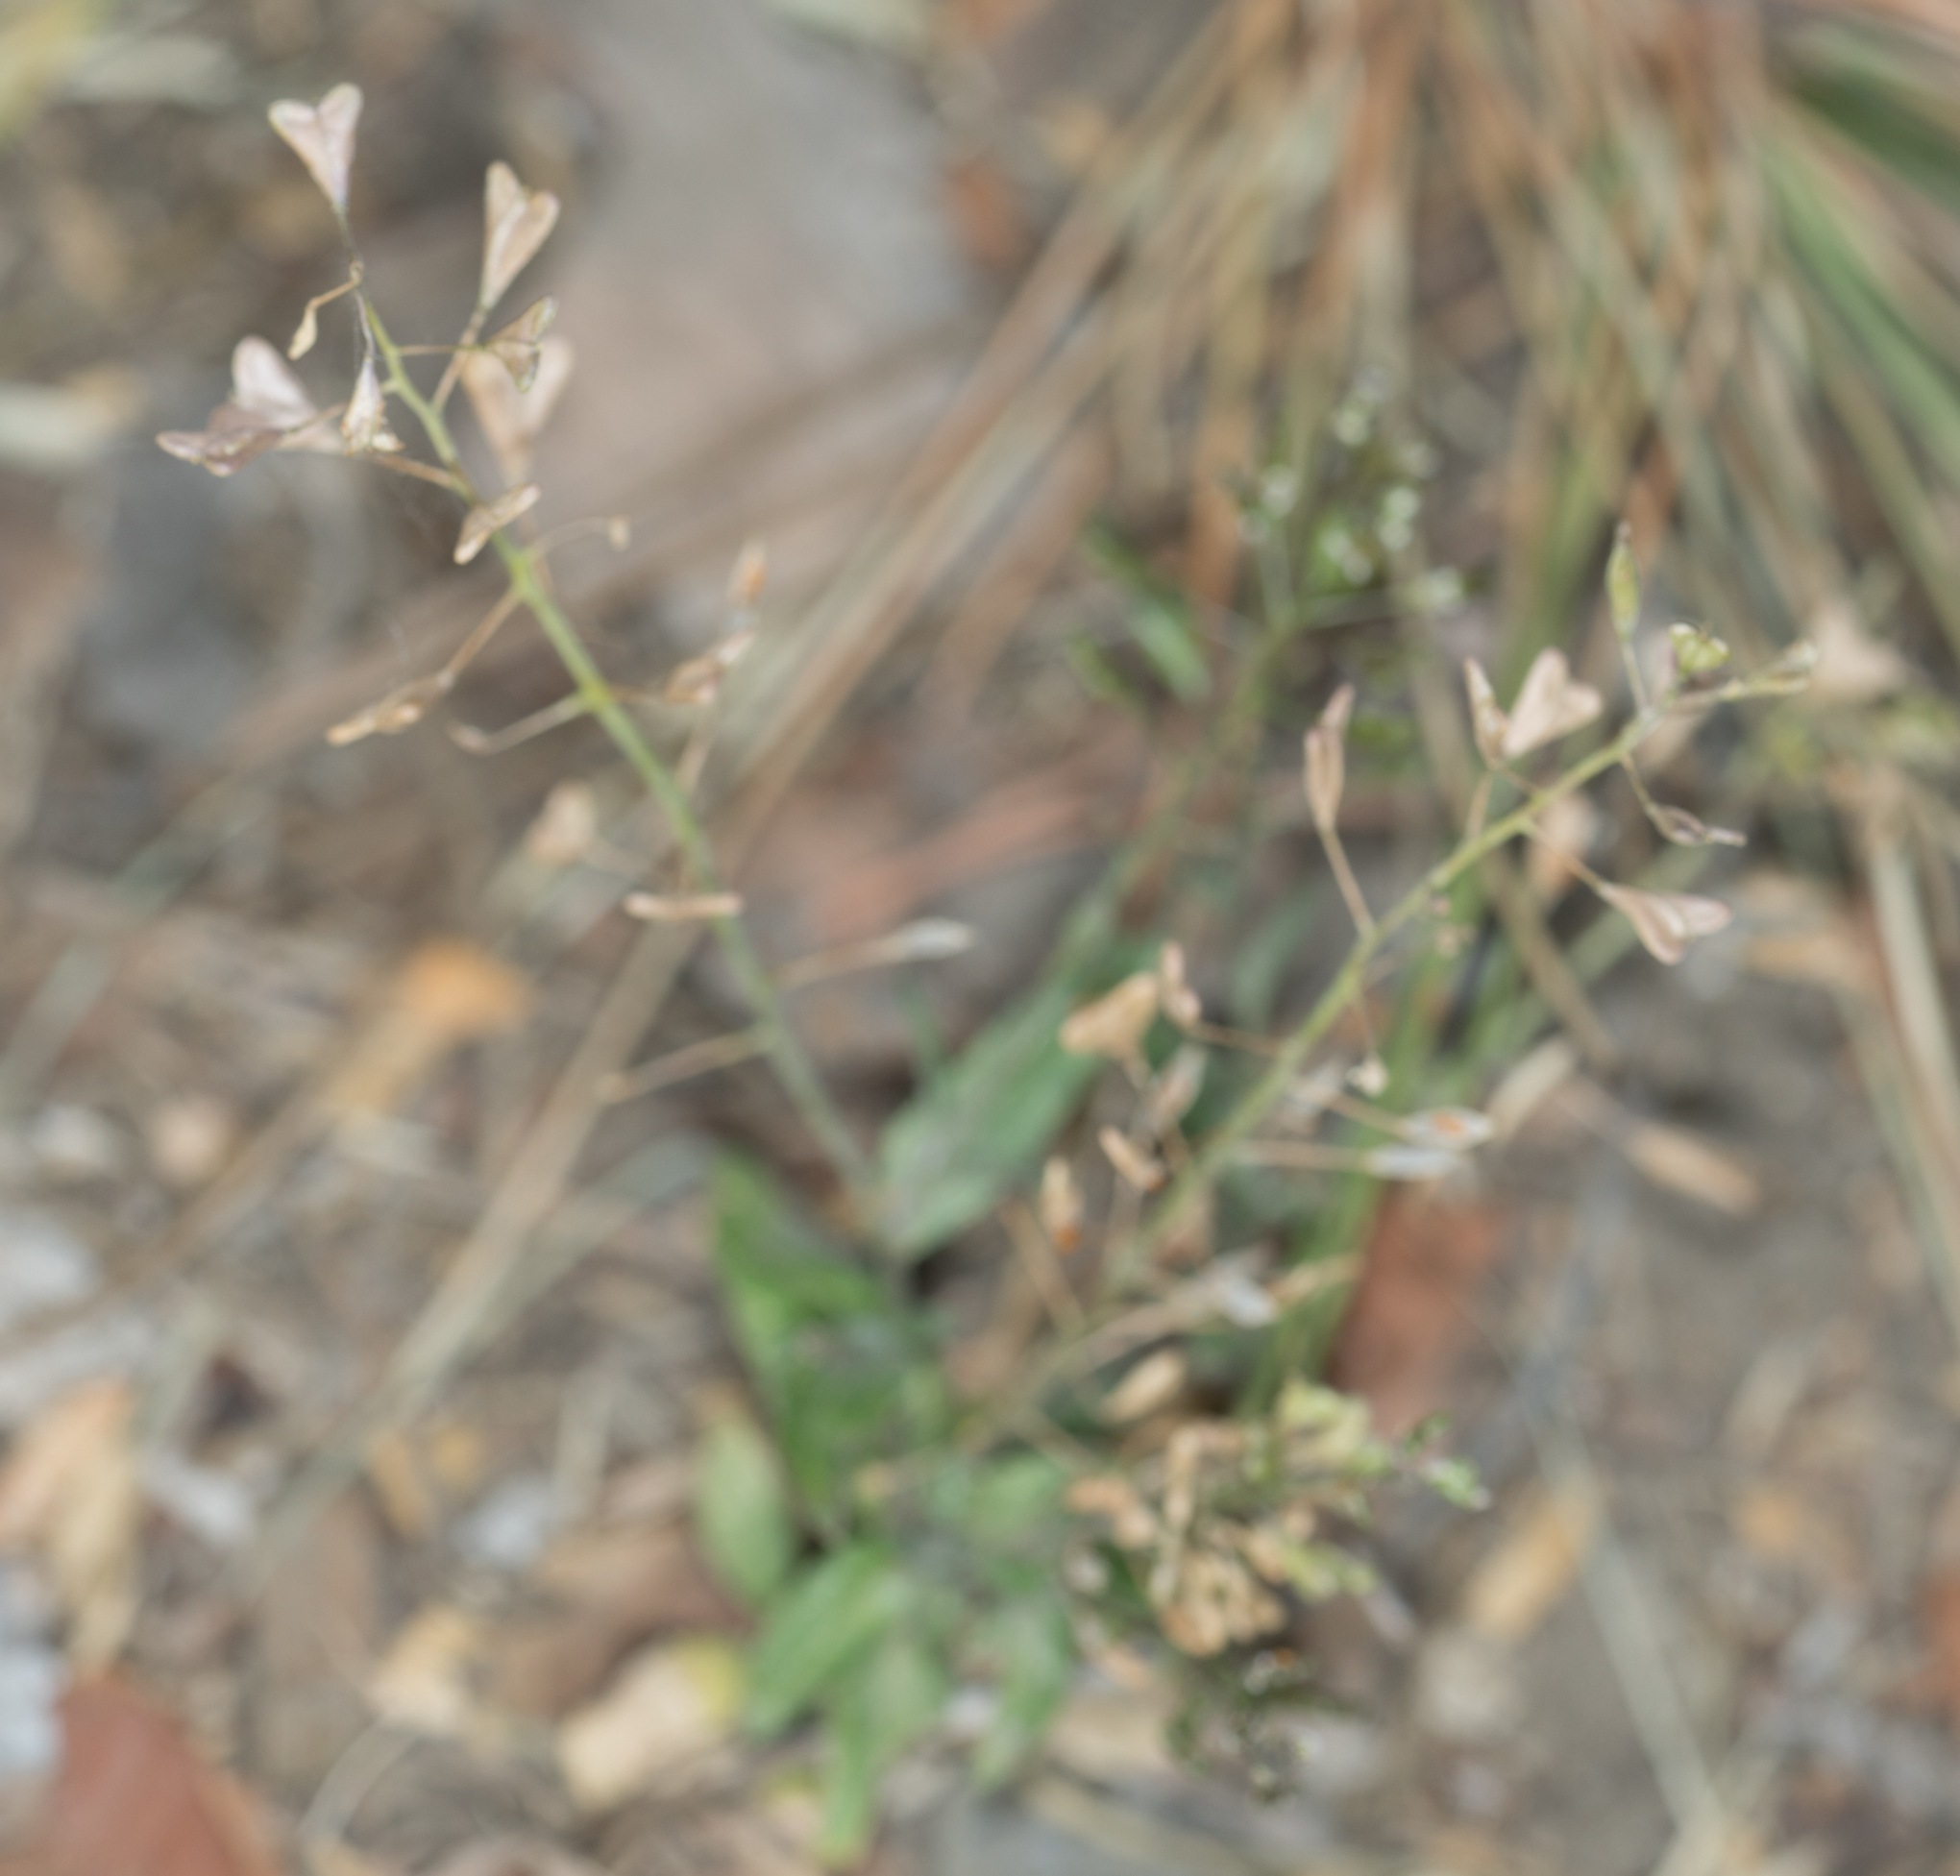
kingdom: Plantae
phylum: Tracheophyta
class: Magnoliopsida
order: Brassicales
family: Brassicaceae
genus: Capsella
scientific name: Capsella bursa-pastoris
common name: Shepherd's purse
